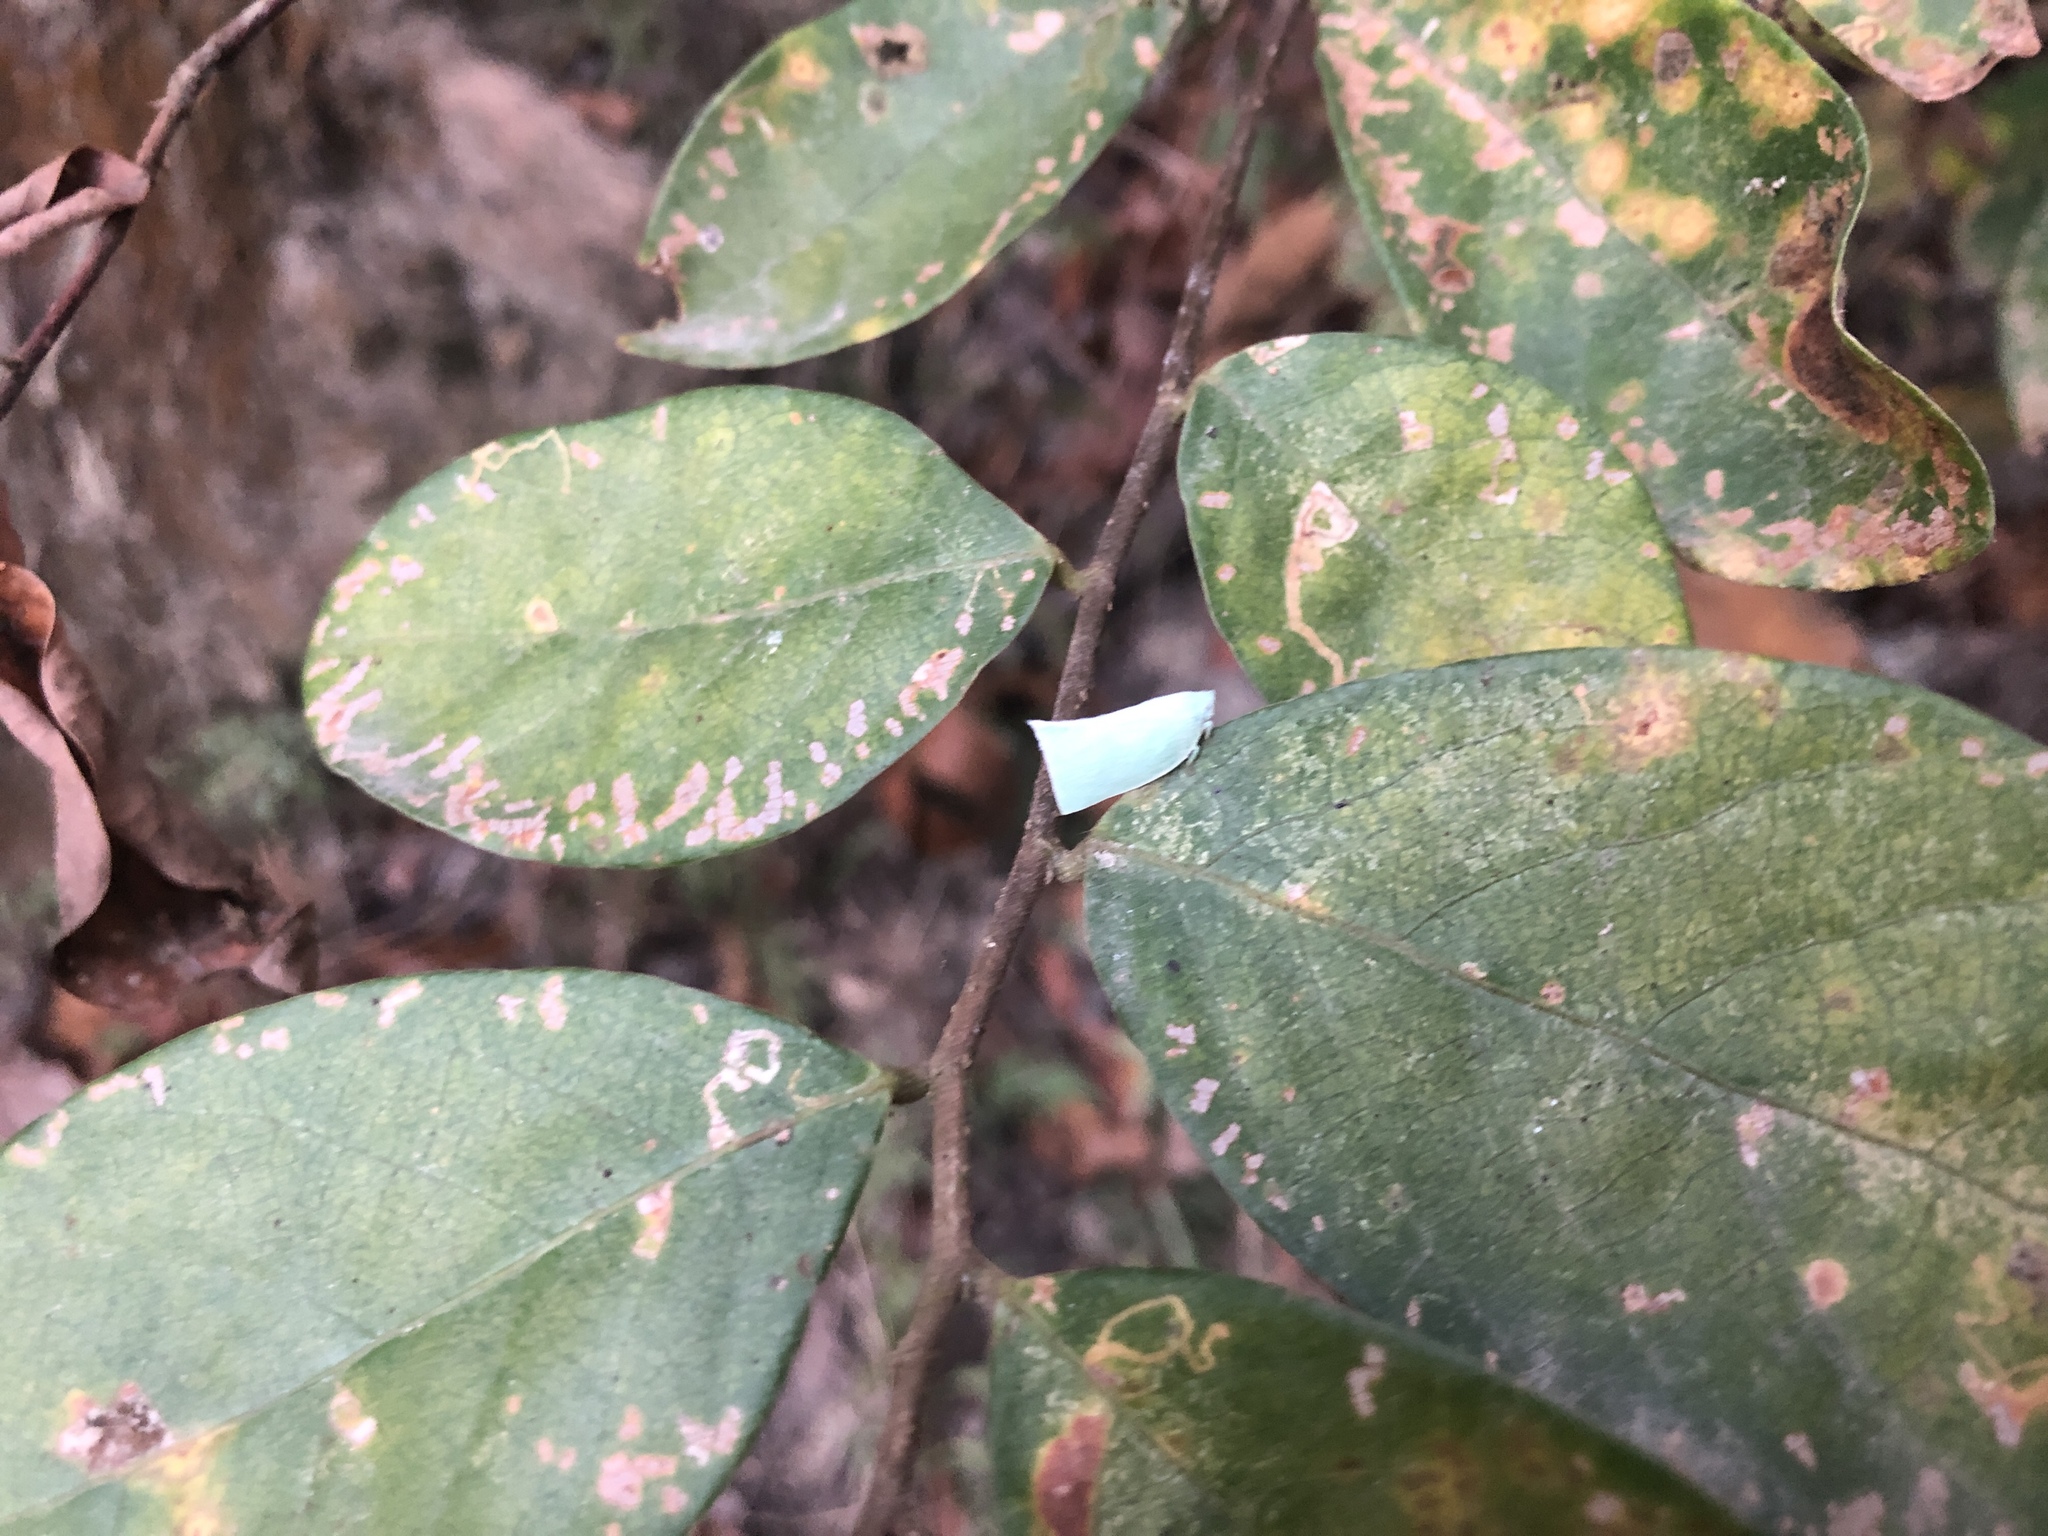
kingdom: Animalia
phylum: Arthropoda
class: Insecta
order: Hemiptera
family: Flatidae
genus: Phylliana
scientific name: Phylliana alba
